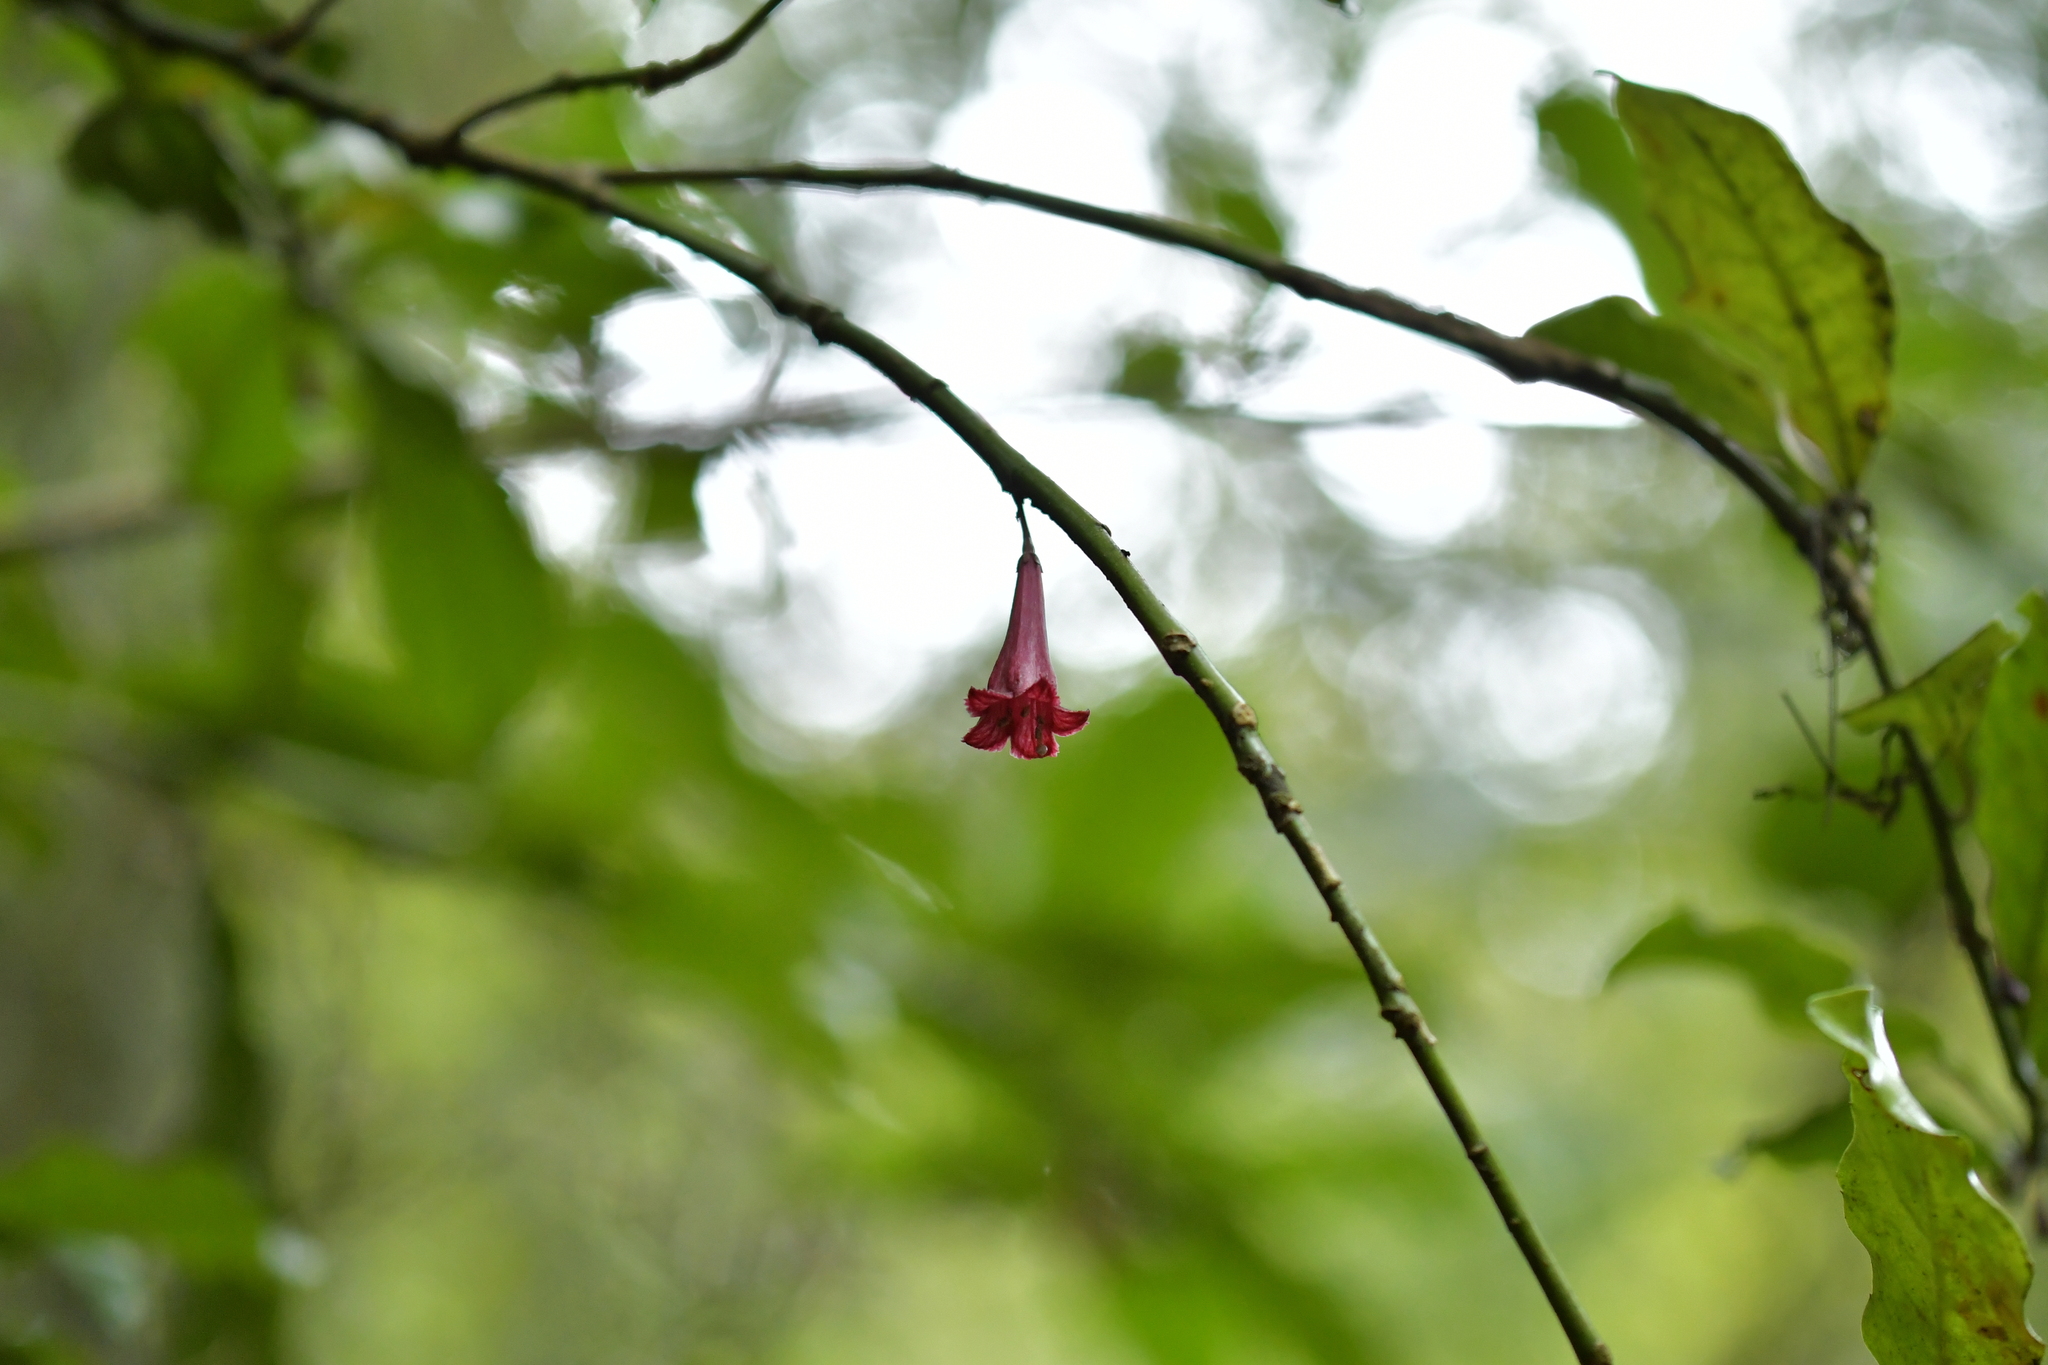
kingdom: Plantae
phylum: Tracheophyta
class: Magnoliopsida
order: Asterales
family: Alseuosmiaceae
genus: Alseuosmia
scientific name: Alseuosmia macrophylla
